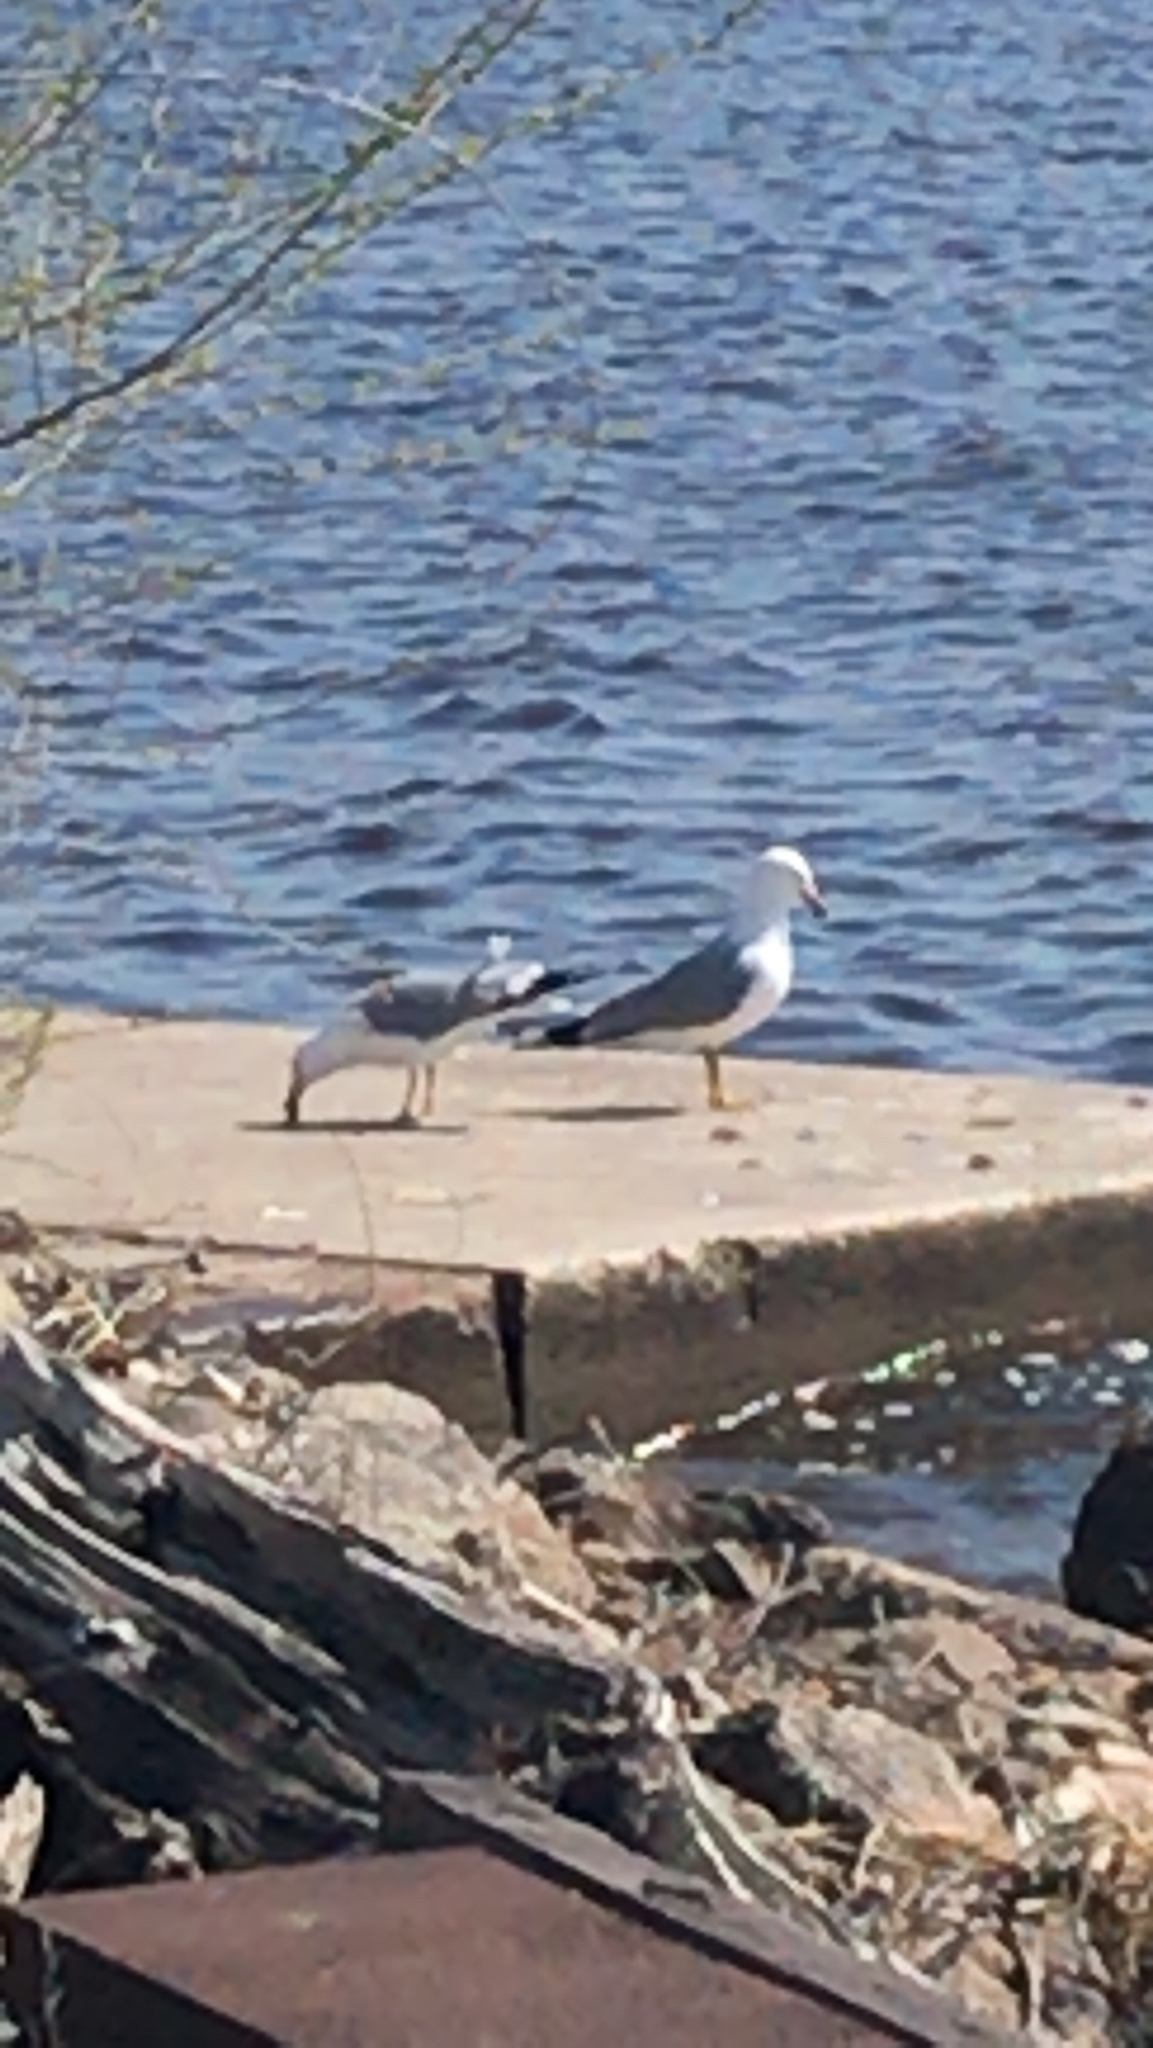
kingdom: Animalia
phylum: Chordata
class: Aves
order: Charadriiformes
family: Laridae
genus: Larus
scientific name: Larus delawarensis
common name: Ring-billed gull
